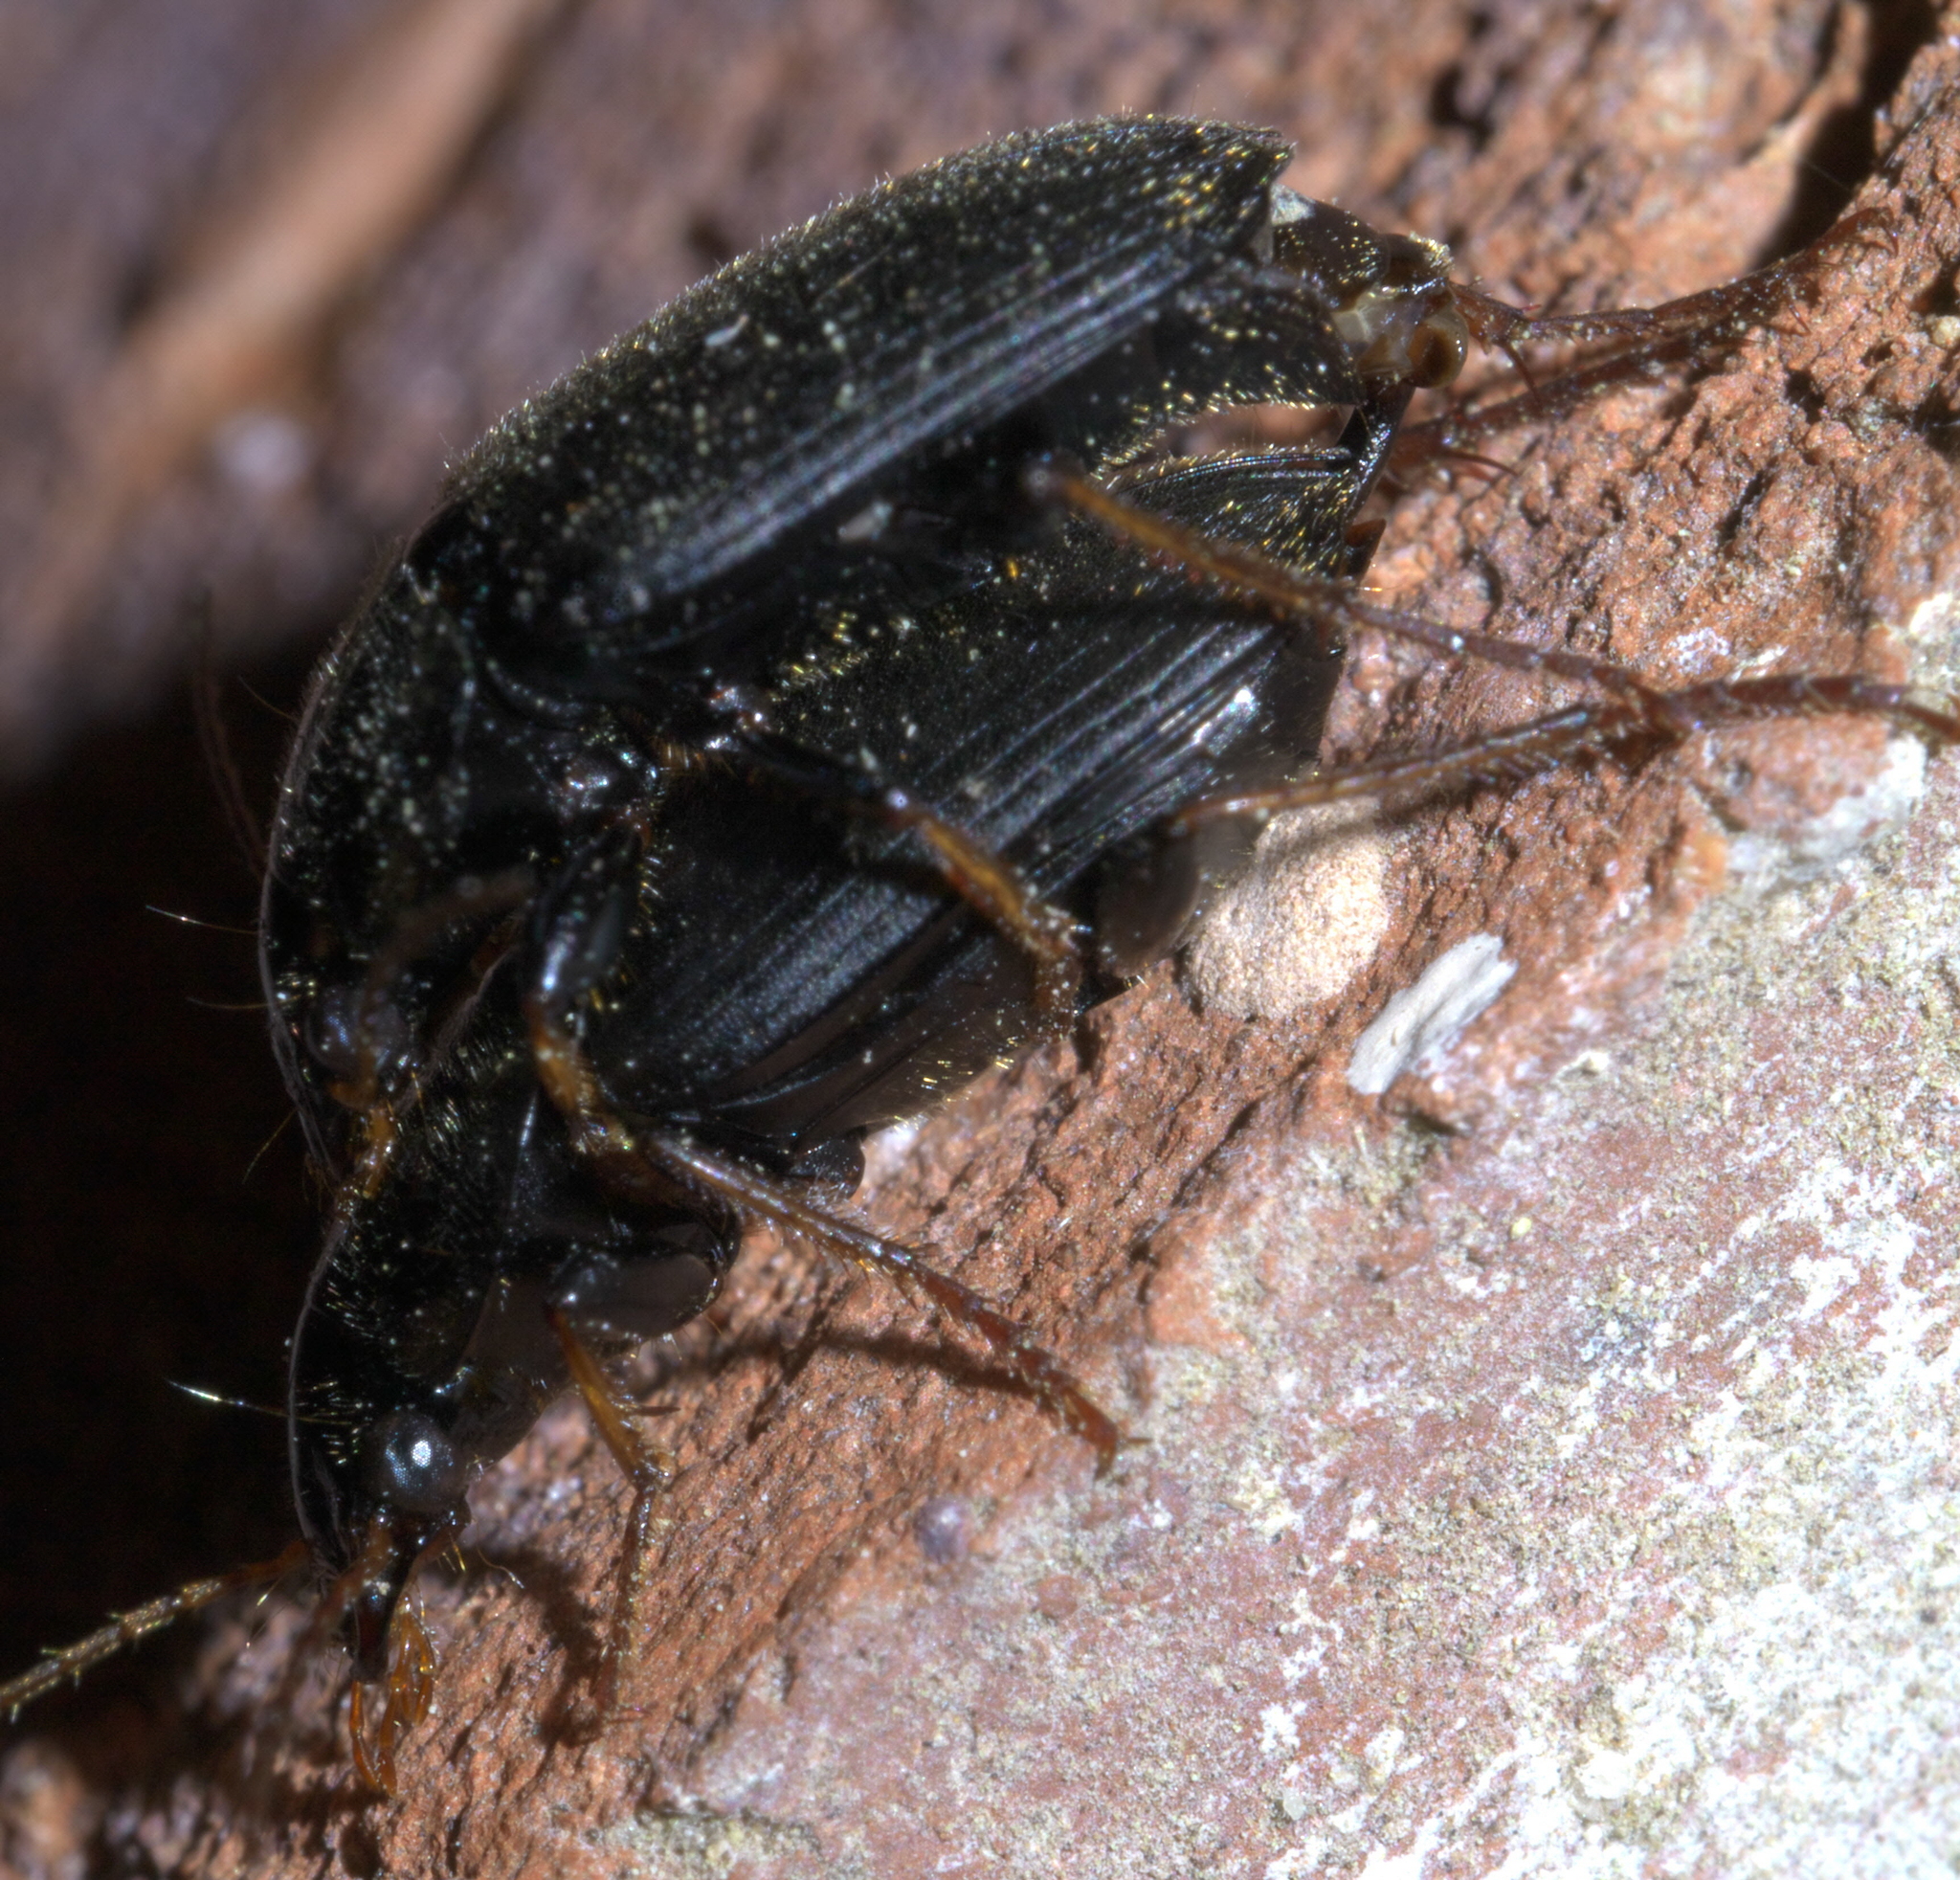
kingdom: Animalia
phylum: Arthropoda
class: Insecta
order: Coleoptera
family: Carabidae
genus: Amphasia
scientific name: Amphasia sericea
